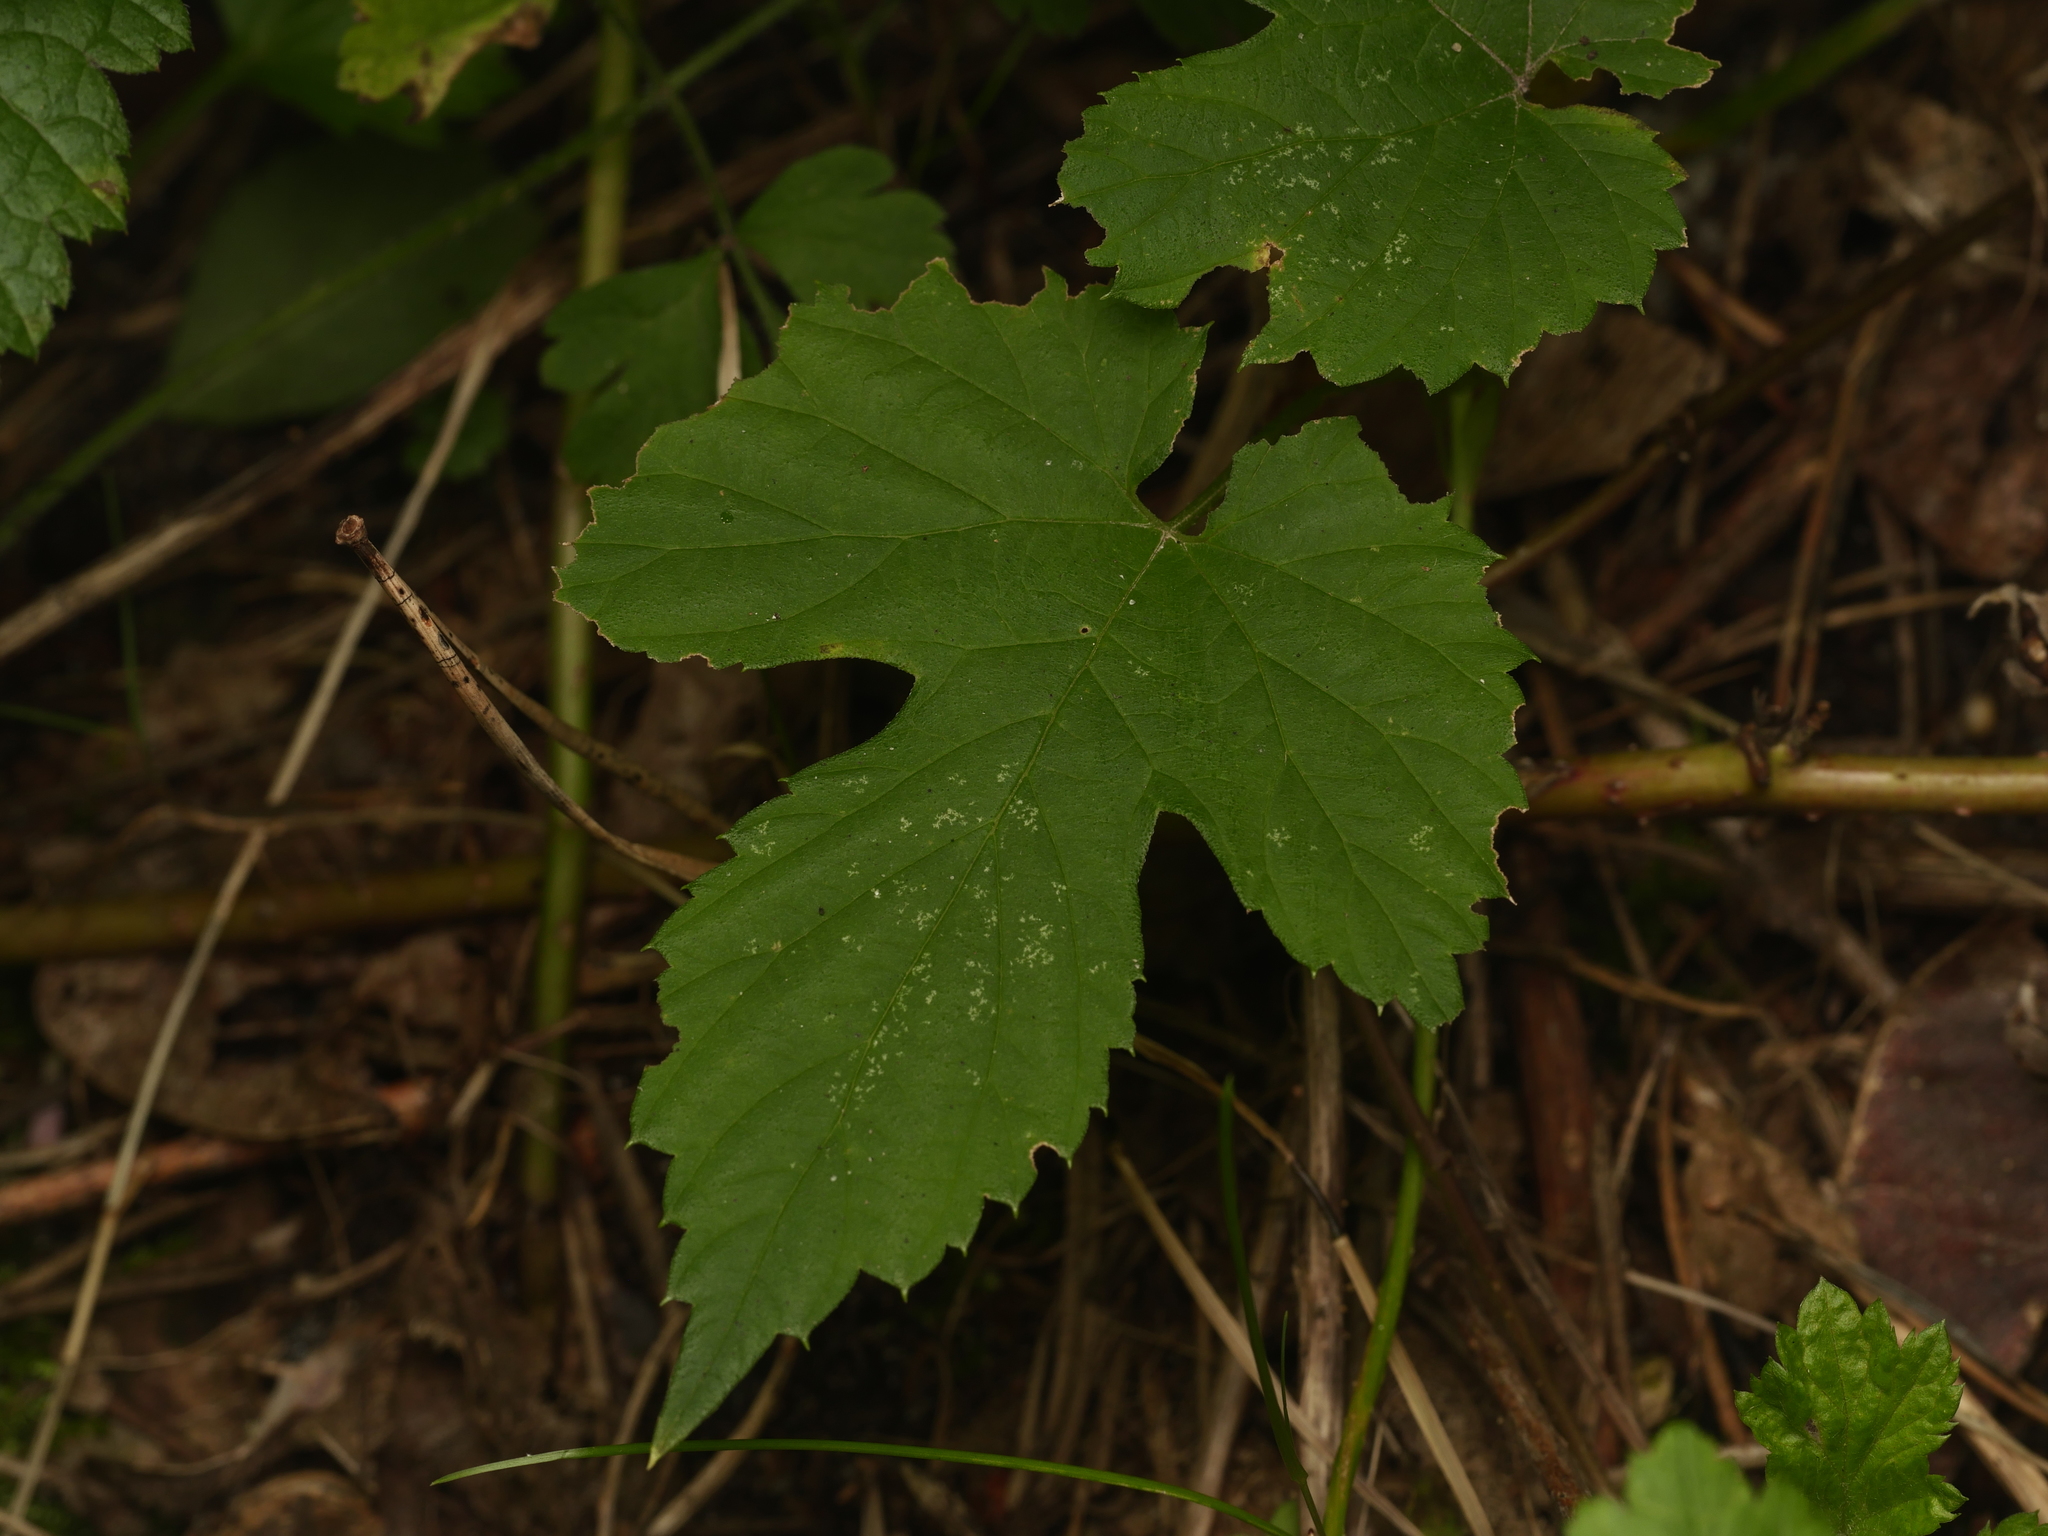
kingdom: Plantae
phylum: Tracheophyta
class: Magnoliopsida
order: Rosales
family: Cannabaceae
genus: Humulus
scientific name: Humulus lupulus
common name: Hop
